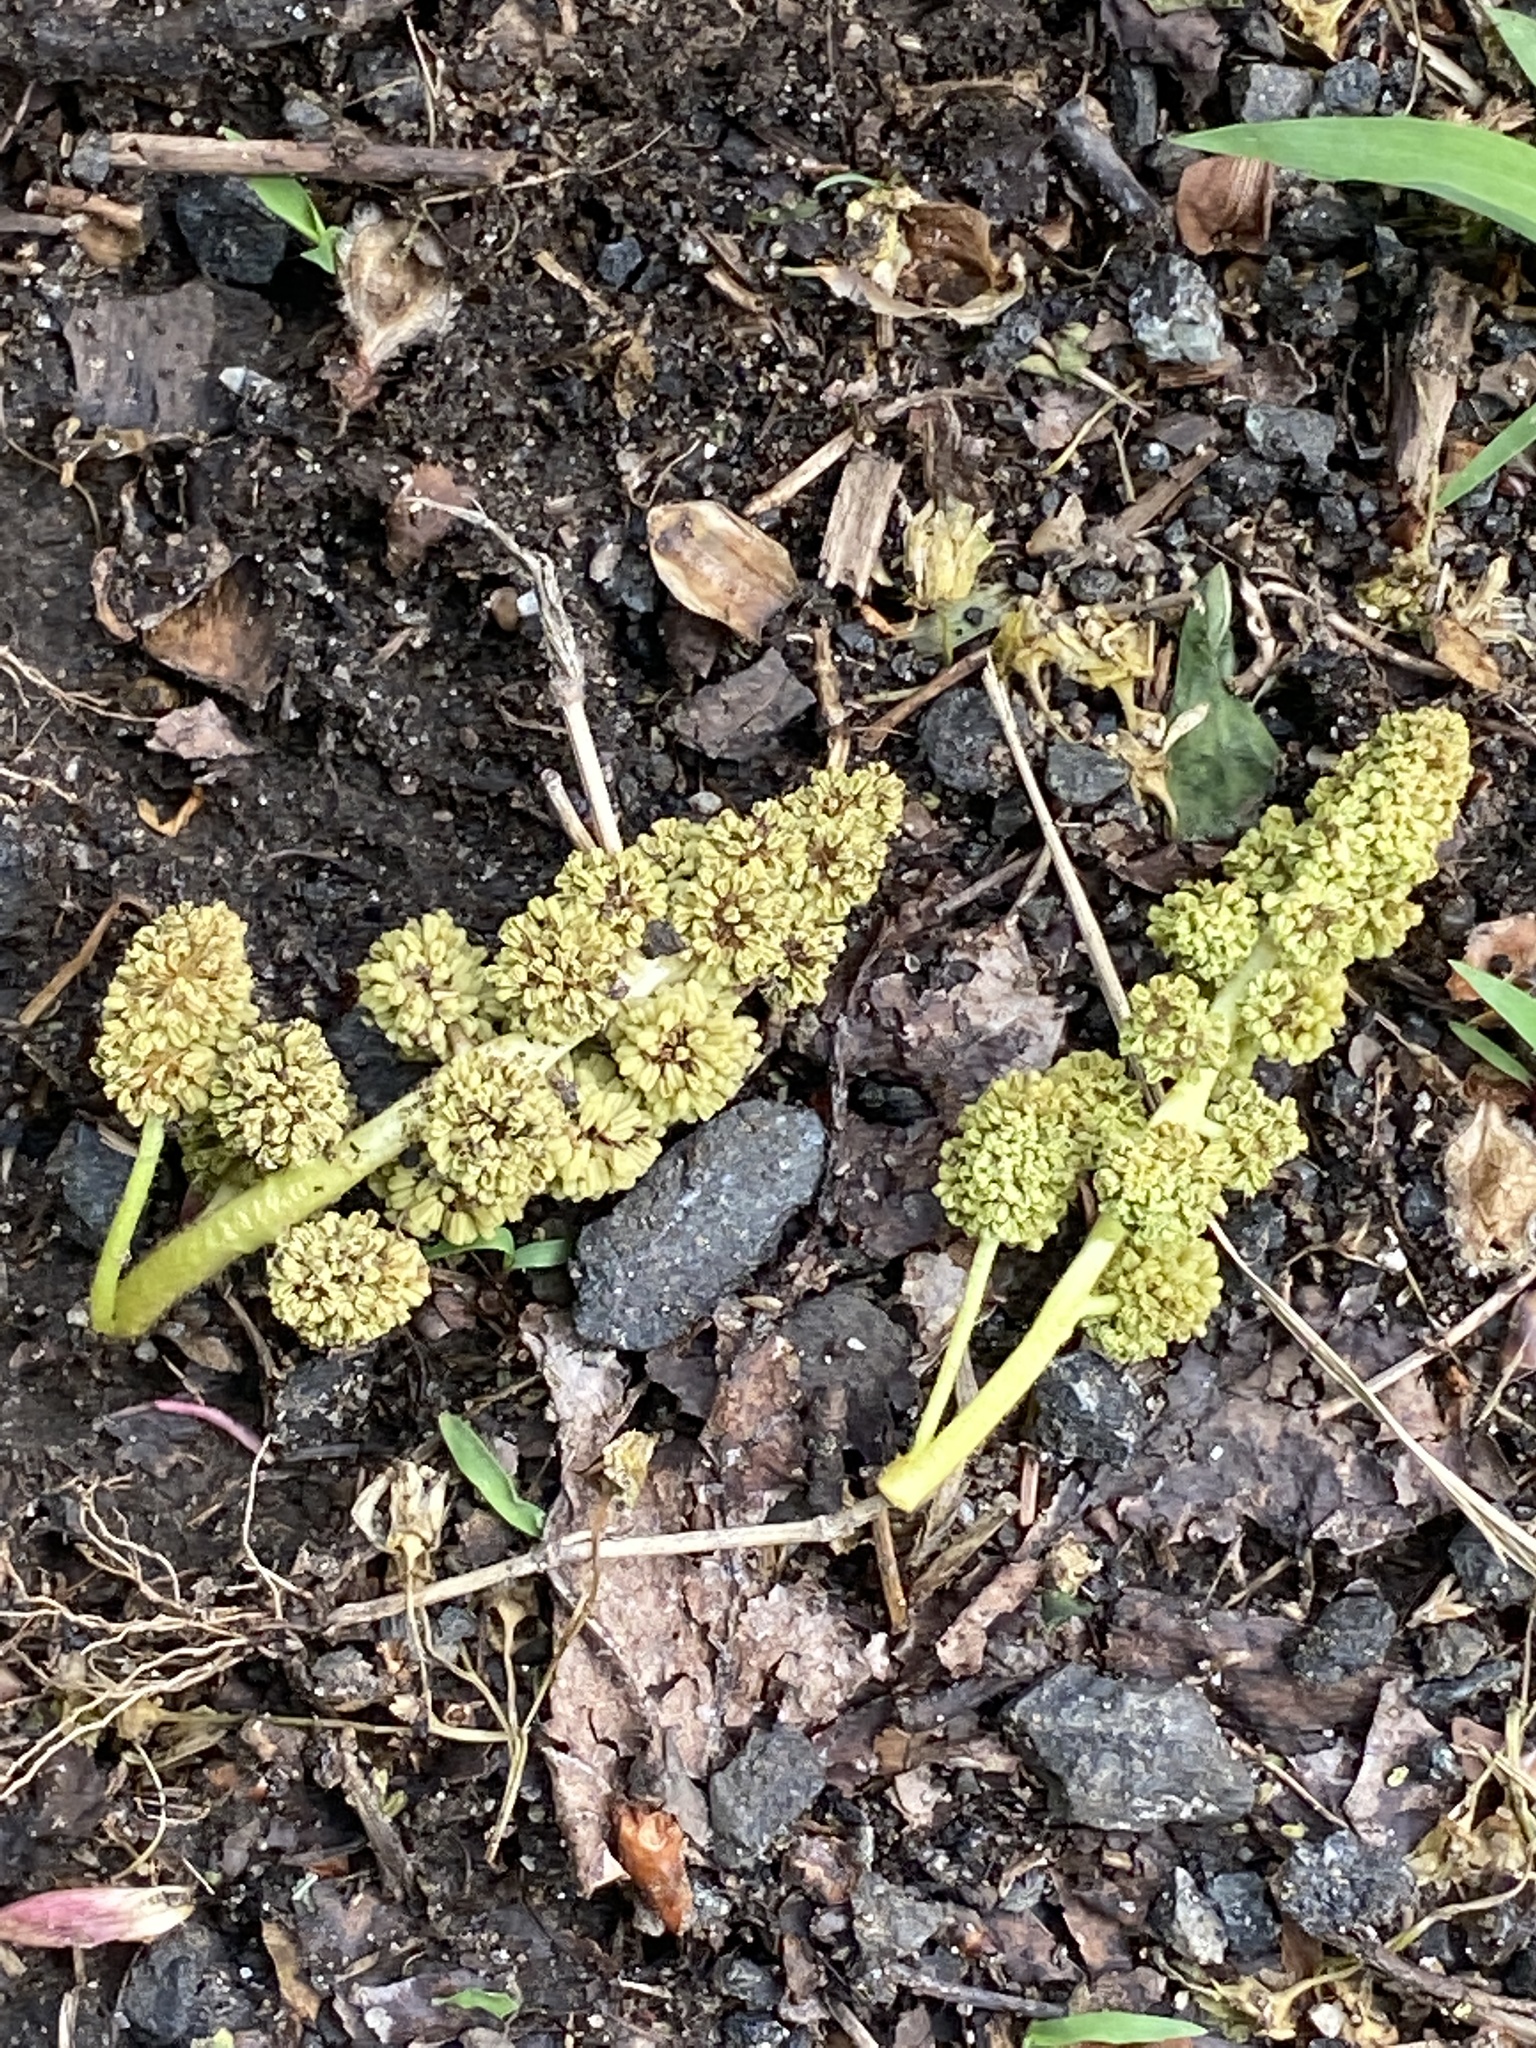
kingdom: Plantae
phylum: Tracheophyta
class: Magnoliopsida
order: Saxifragales
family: Altingiaceae
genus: Liquidambar
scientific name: Liquidambar styraciflua
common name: Sweet gum
